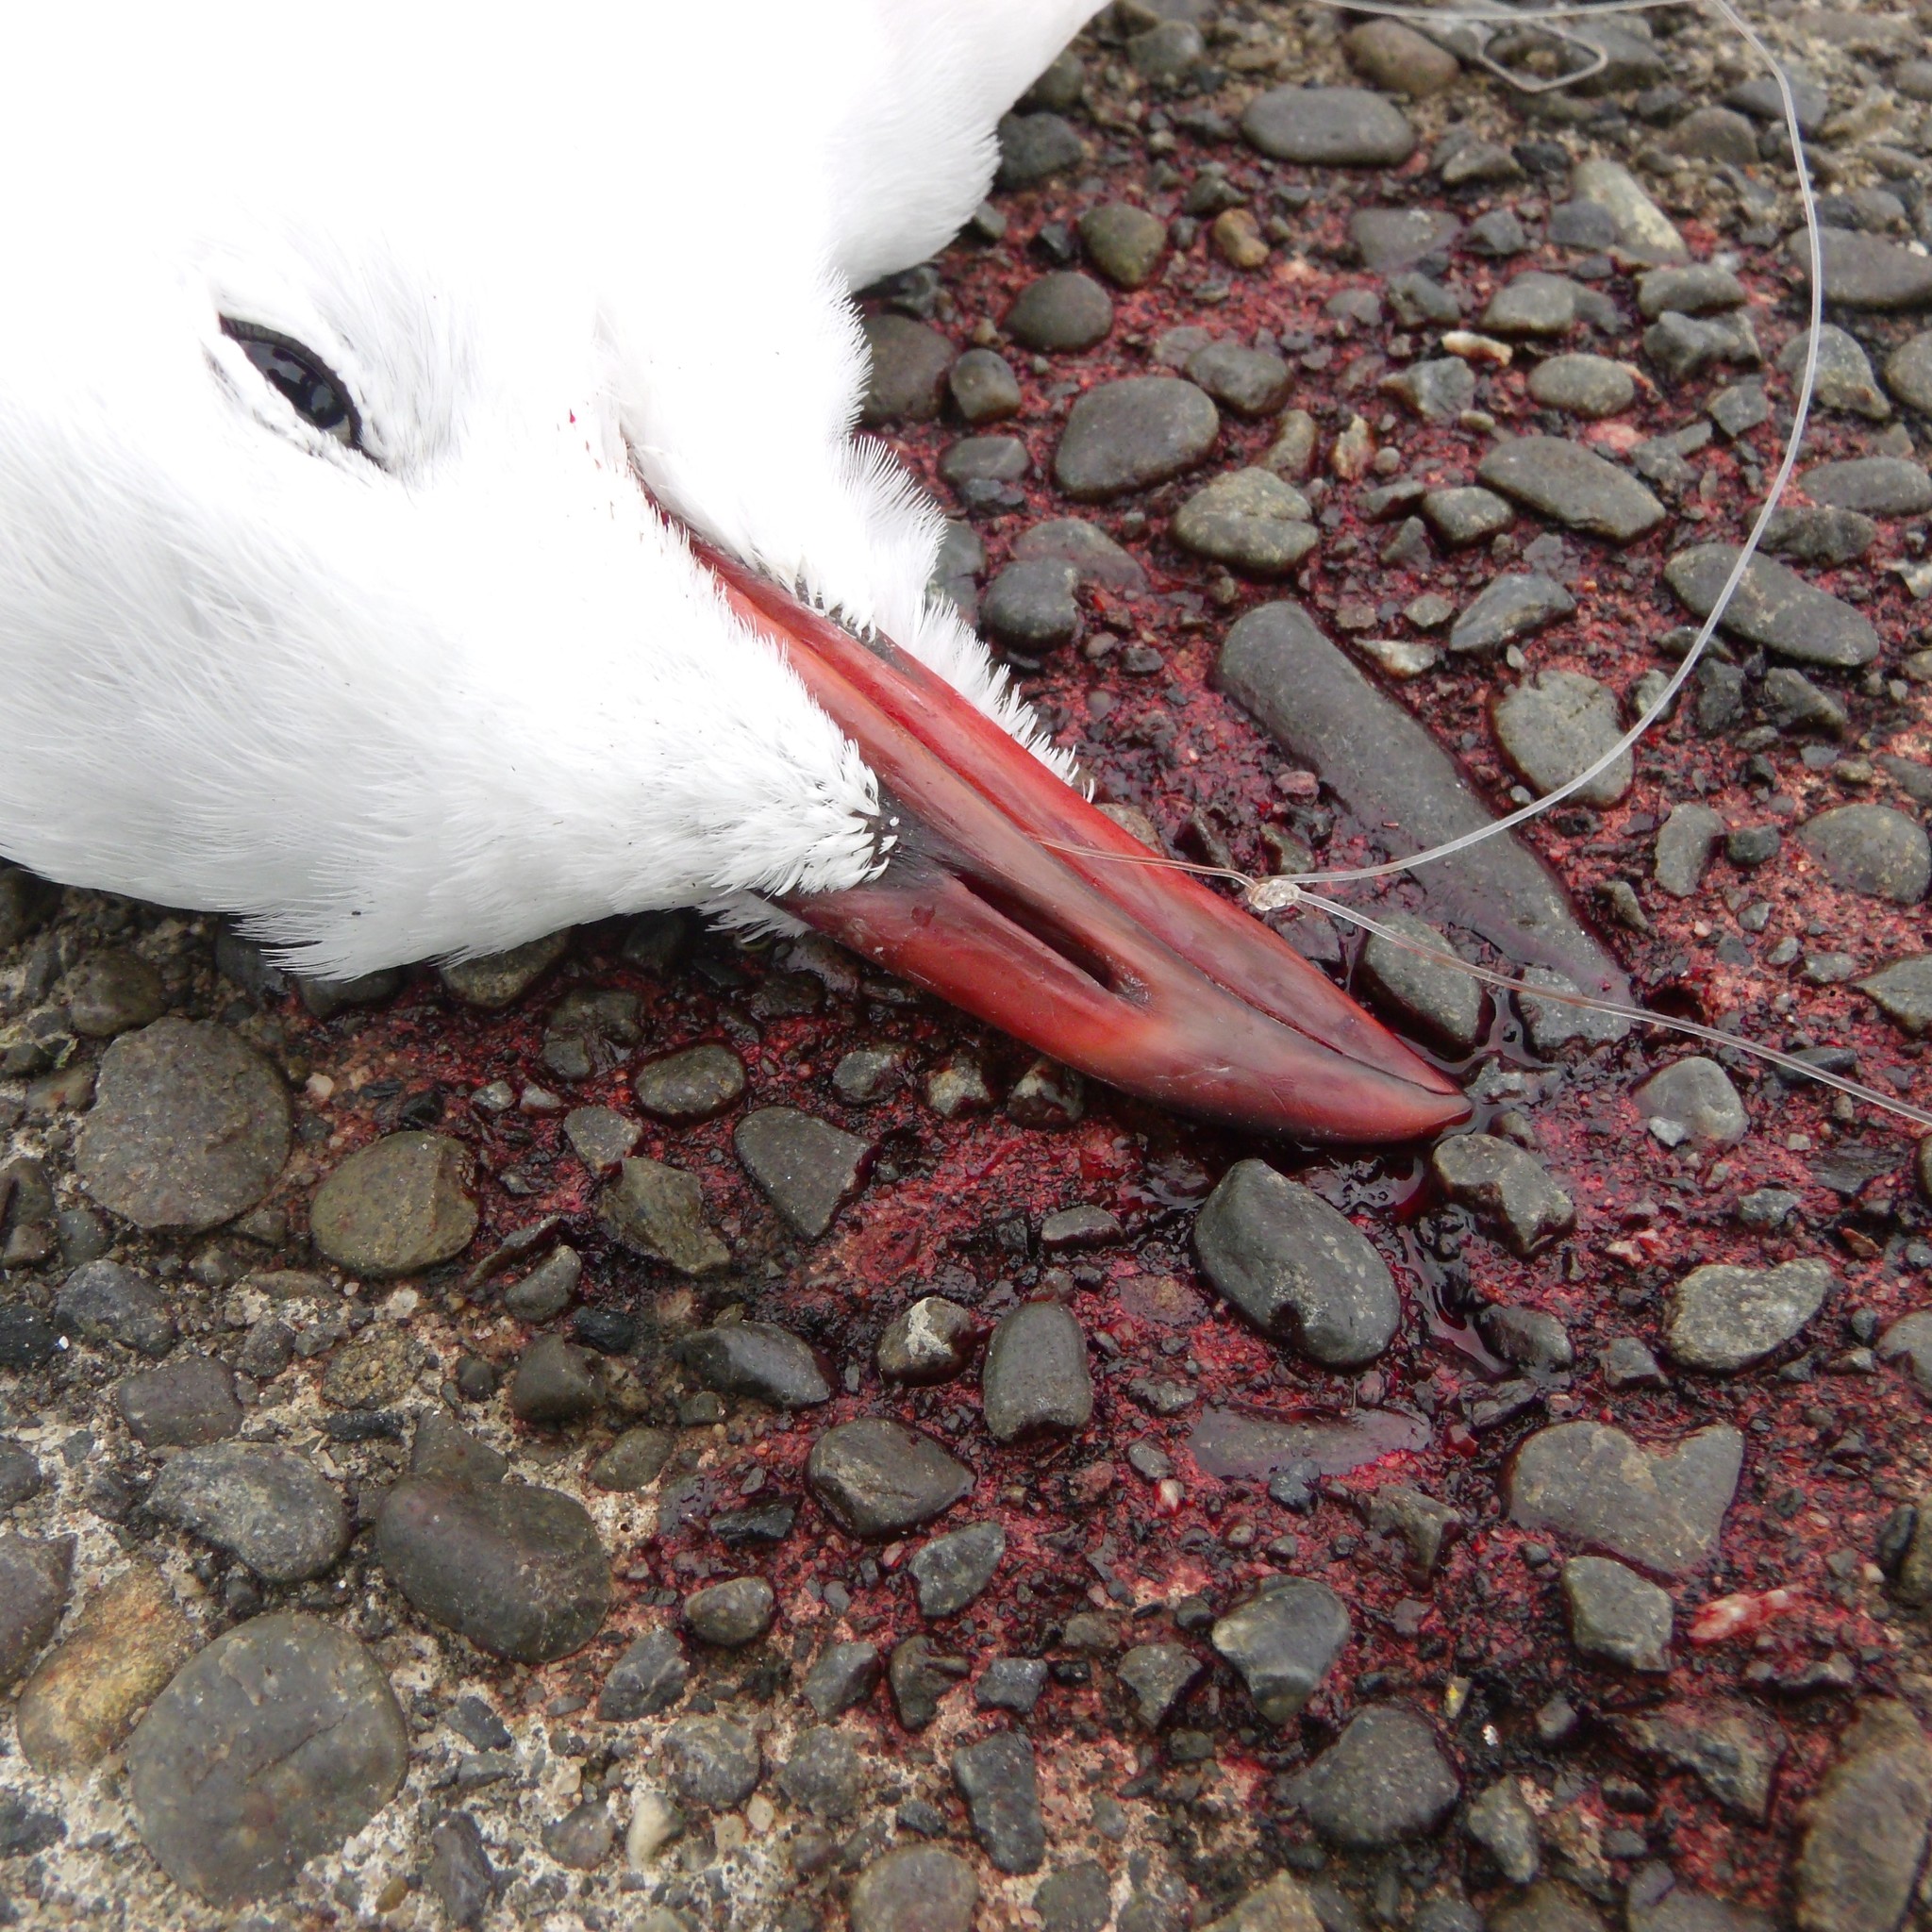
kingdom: Animalia
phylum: Chordata
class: Aves
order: Charadriiformes
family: Laridae
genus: Chroicocephalus
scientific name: Chroicocephalus novaehollandiae
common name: Silver gull
